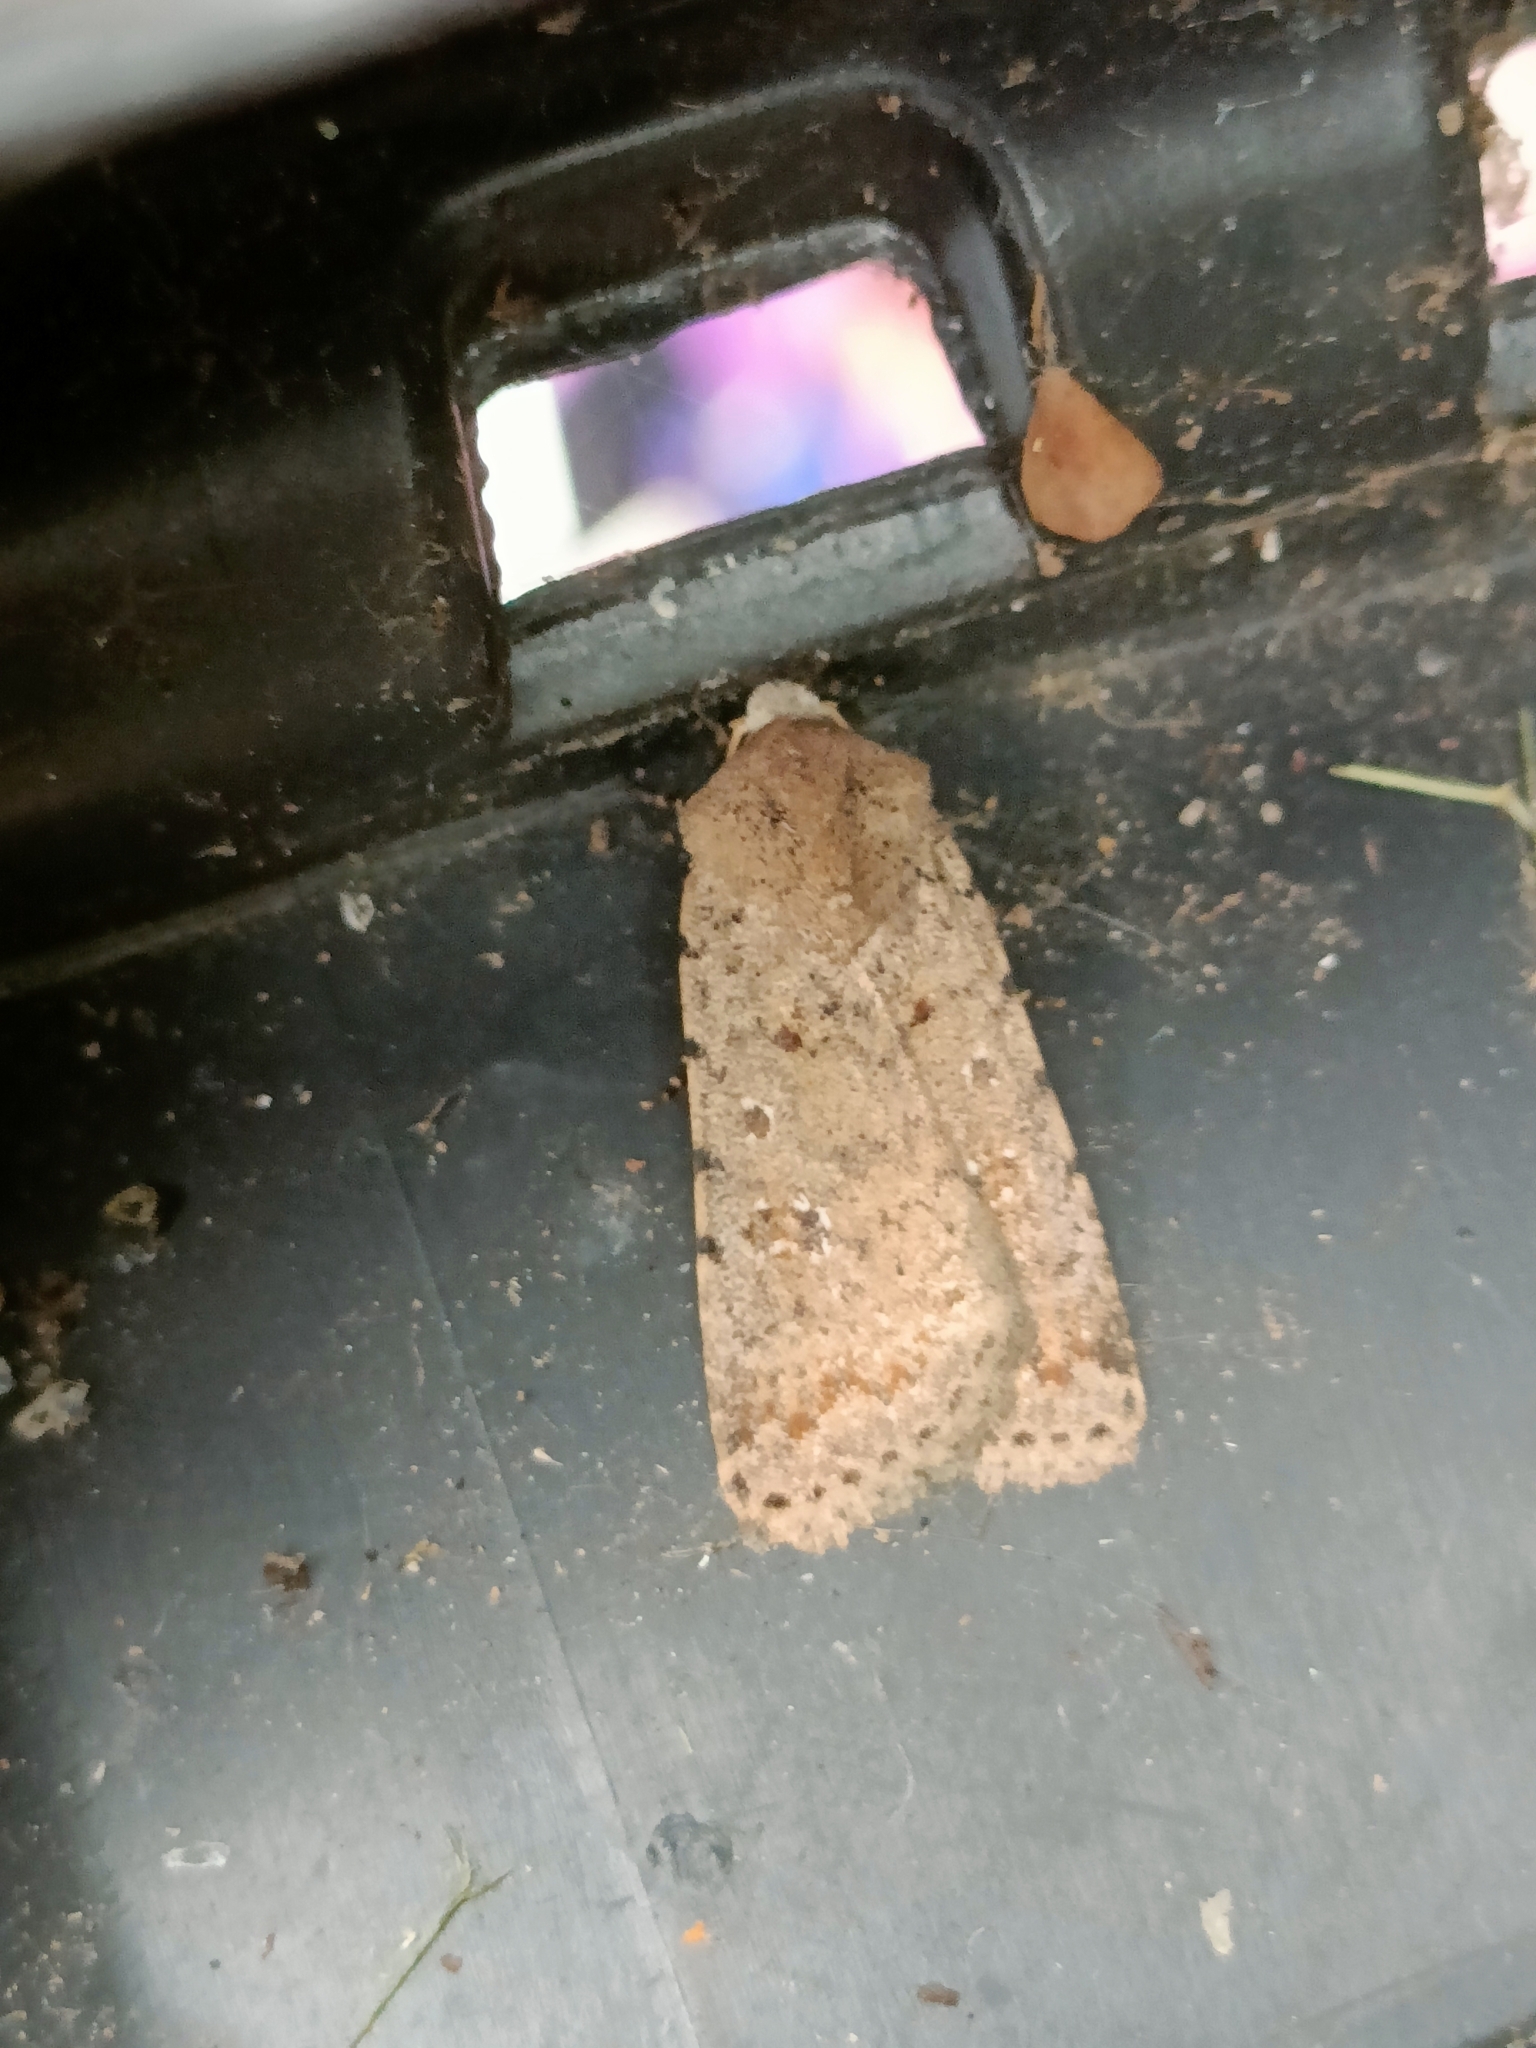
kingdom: Animalia
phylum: Arthropoda
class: Insecta
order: Lepidoptera
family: Noctuidae
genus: Caradrina
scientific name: Caradrina clavipalpis
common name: Pale mottled willow
